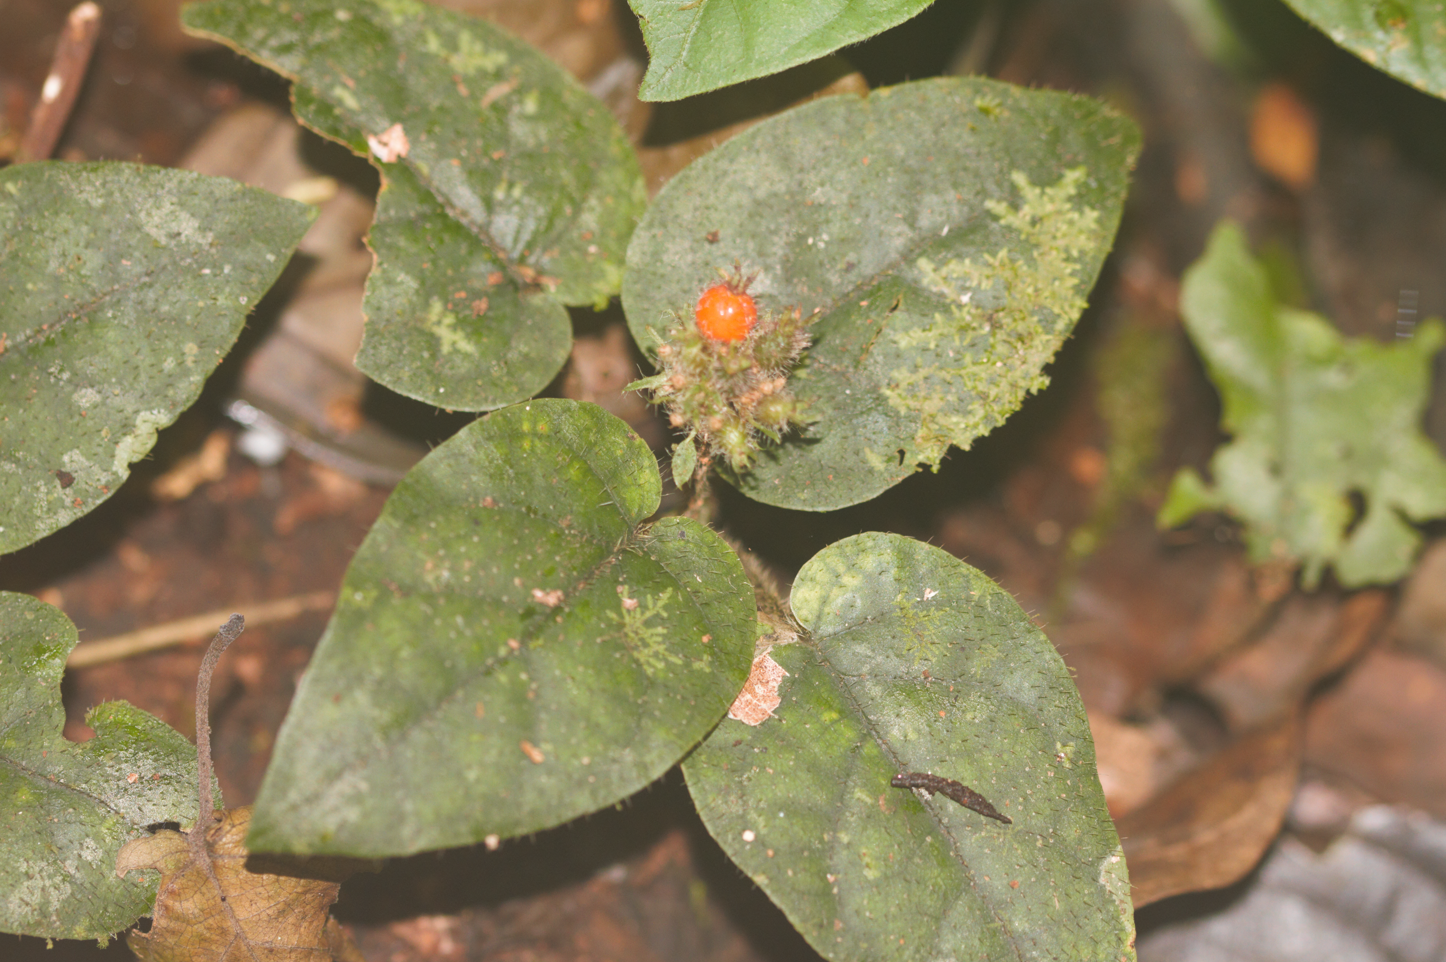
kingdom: Plantae
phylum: Tracheophyta
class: Magnoliopsida
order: Gentianales
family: Rubiaceae
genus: Geophila
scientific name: Geophila cordifolia
